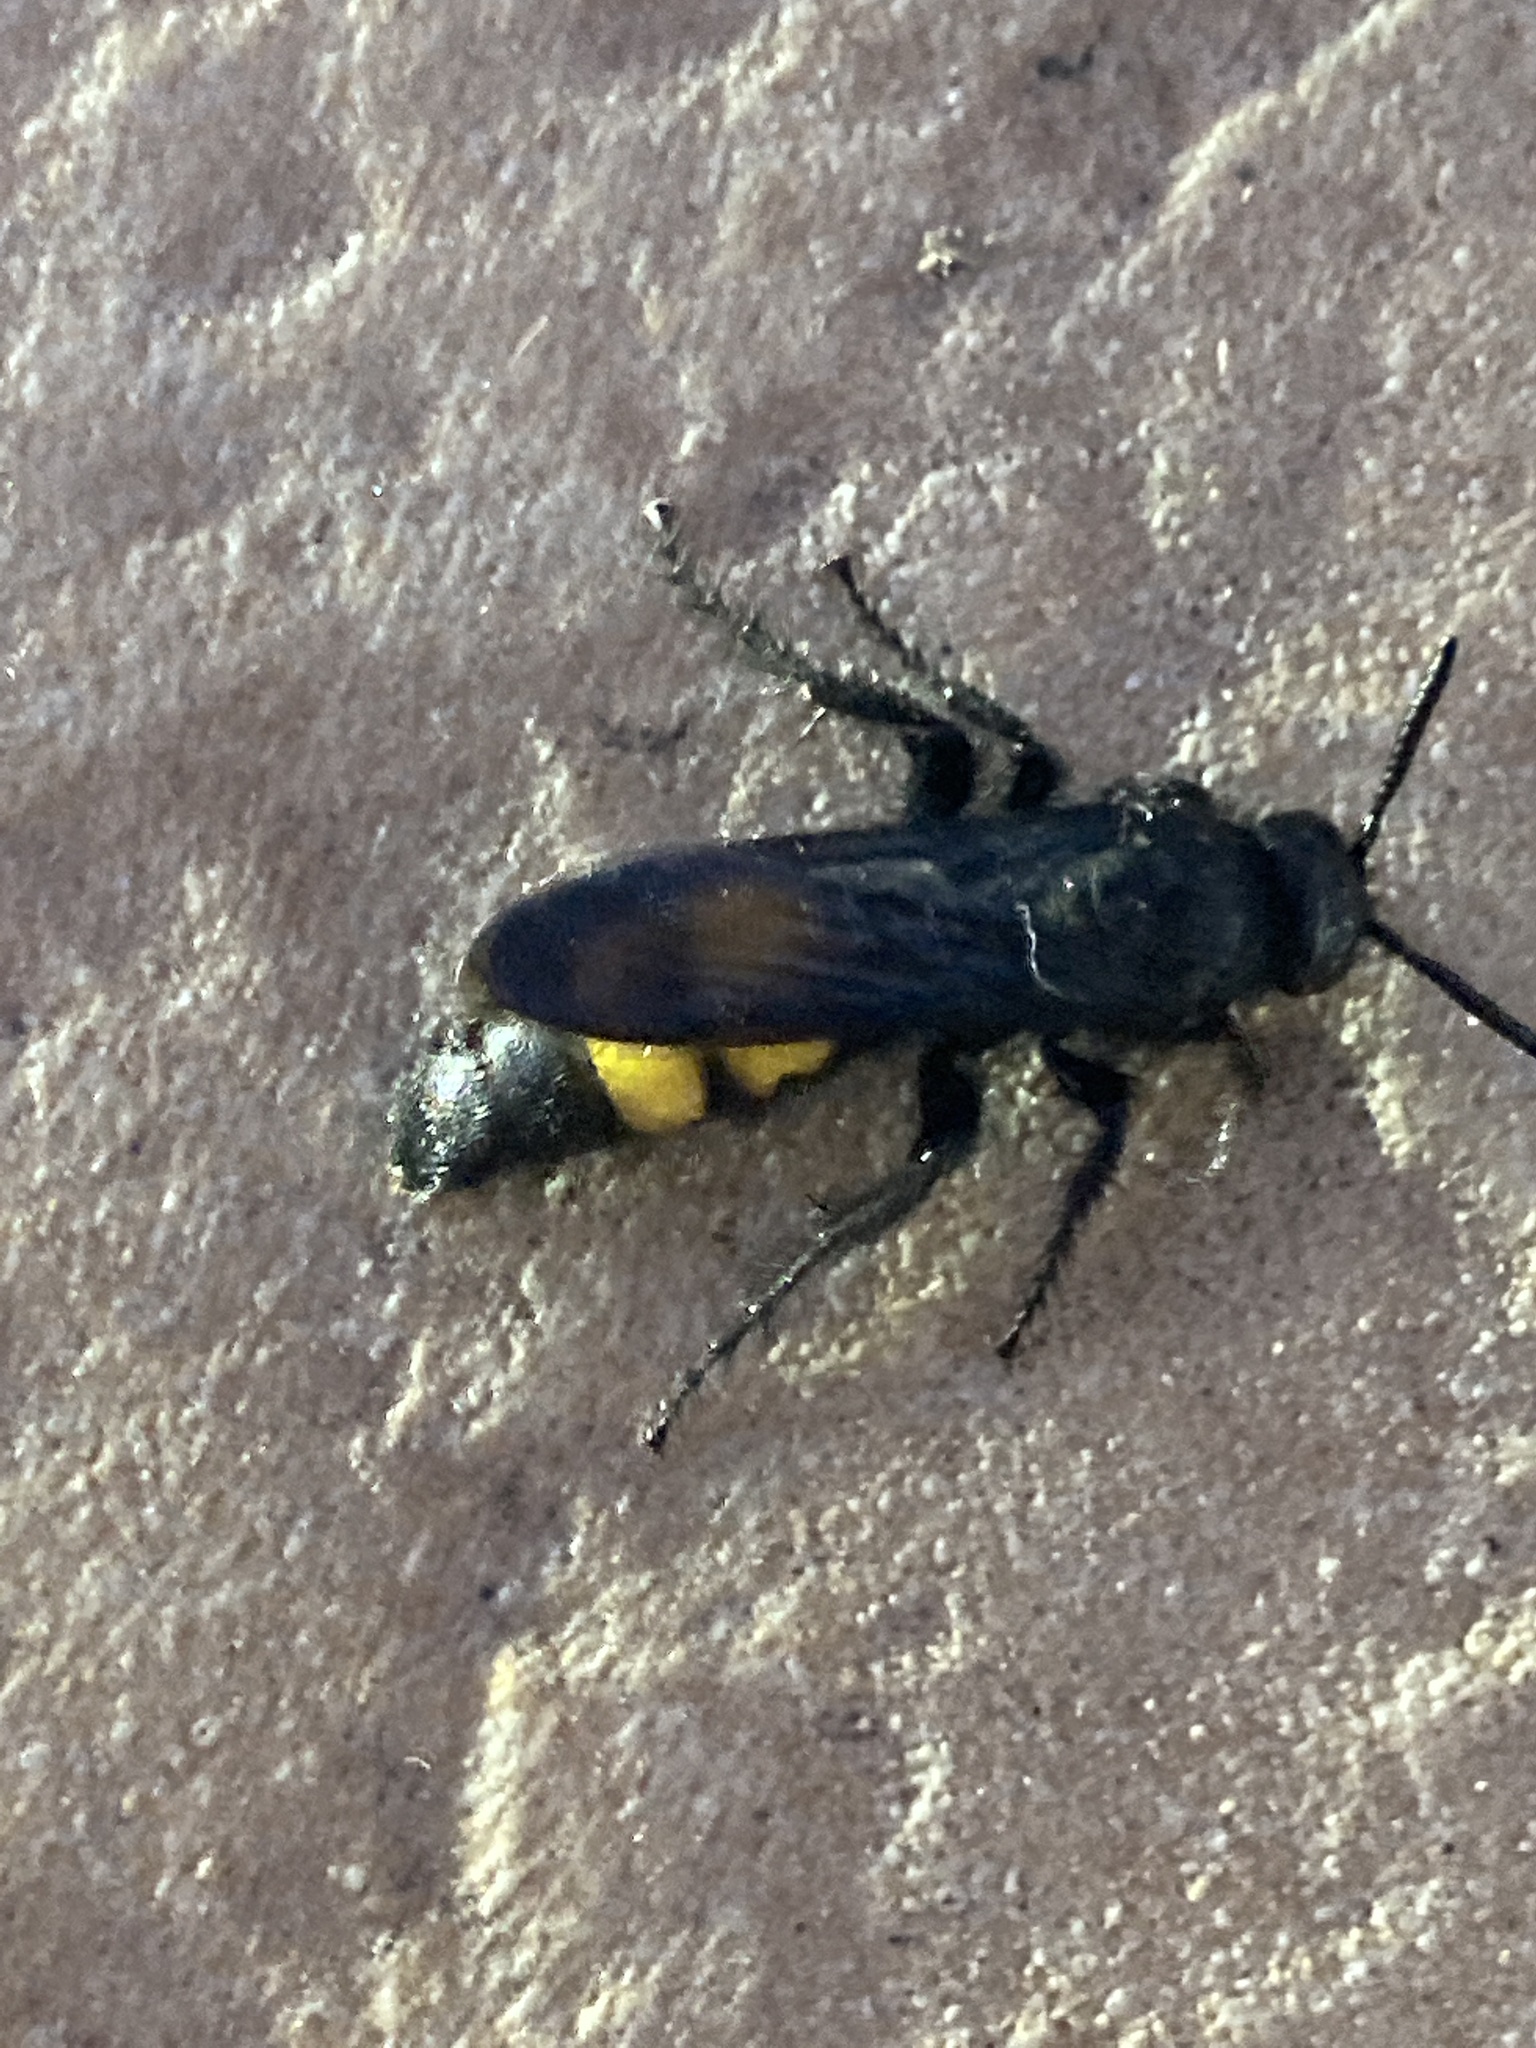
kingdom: Animalia
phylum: Arthropoda
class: Insecta
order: Hymenoptera
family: Scoliidae
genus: Scolia
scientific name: Scolia hirta
